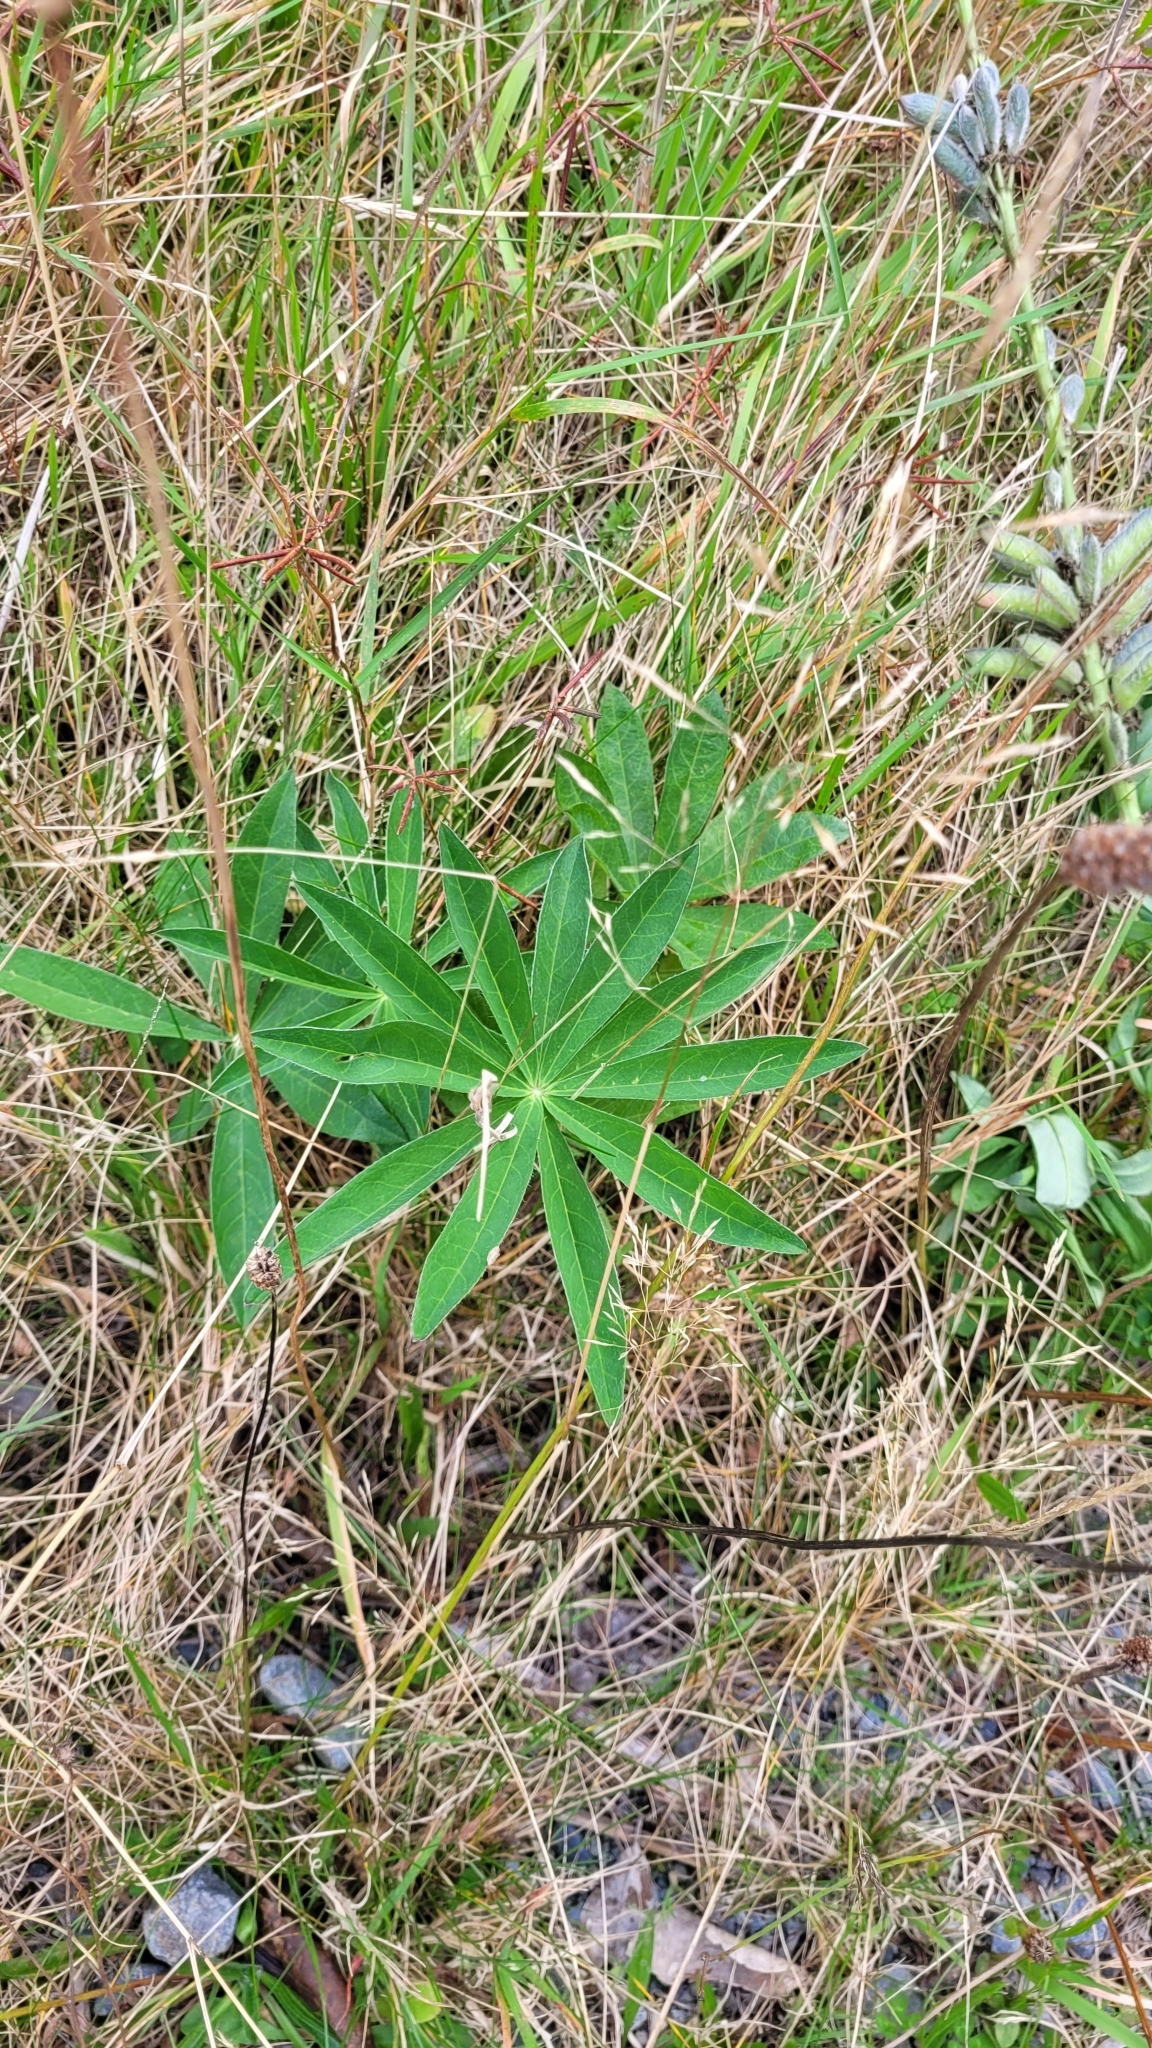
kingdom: Plantae
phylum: Tracheophyta
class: Magnoliopsida
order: Fabales
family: Fabaceae
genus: Lupinus
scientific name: Lupinus polyphyllus
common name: Garden lupin
